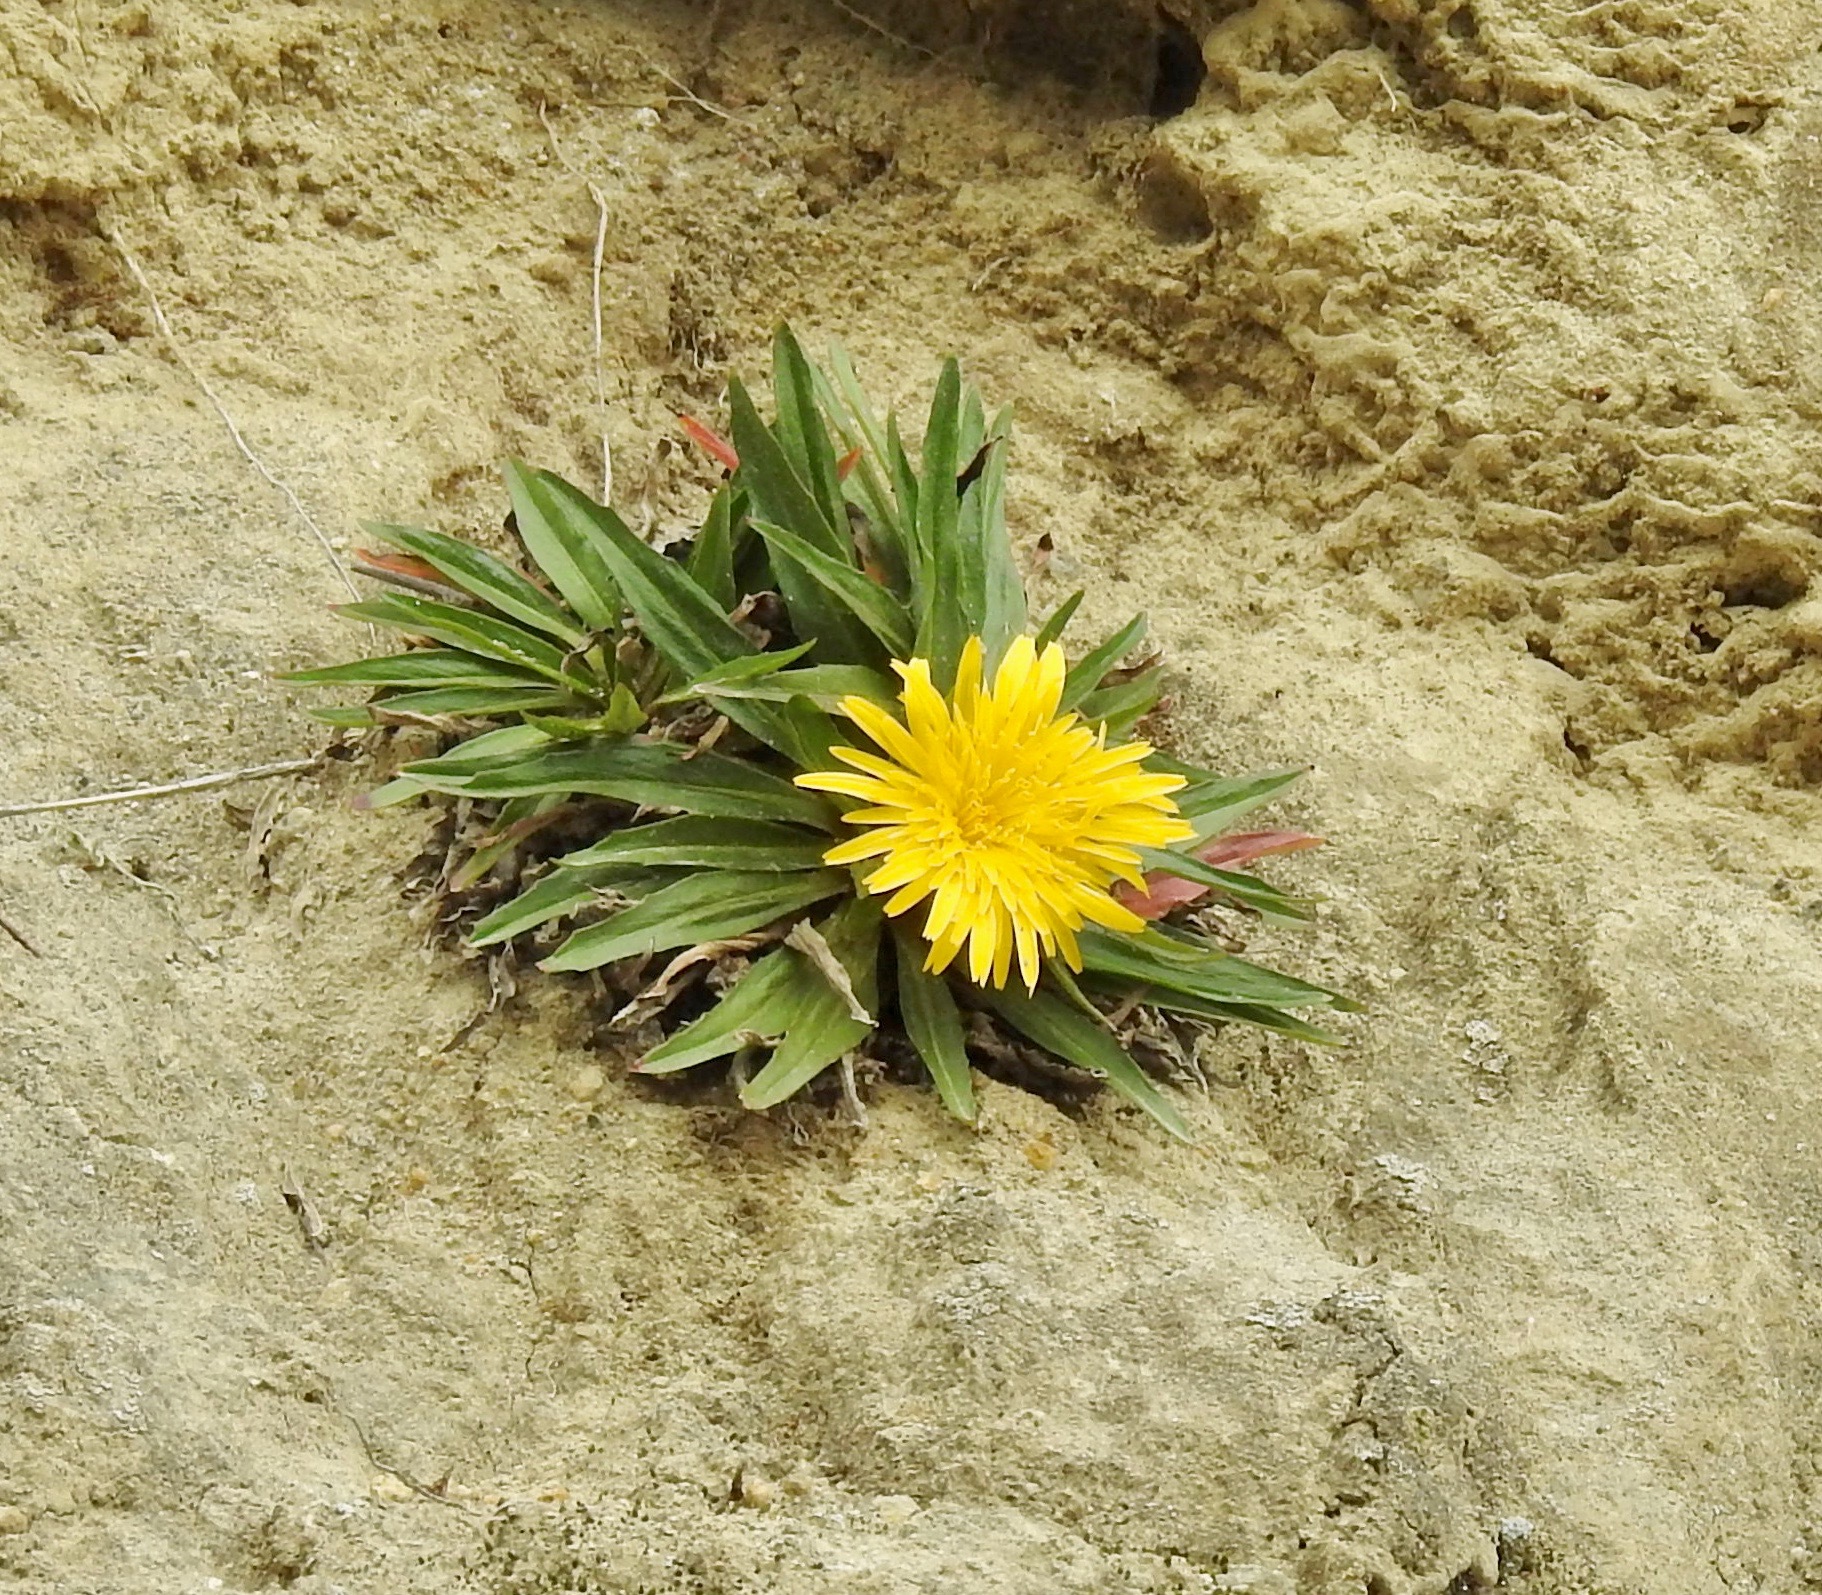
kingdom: Plantae
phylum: Tracheophyta
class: Magnoliopsida
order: Asterales
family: Asteraceae
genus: Hypochaeris
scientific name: Hypochaeris sessiliflora
